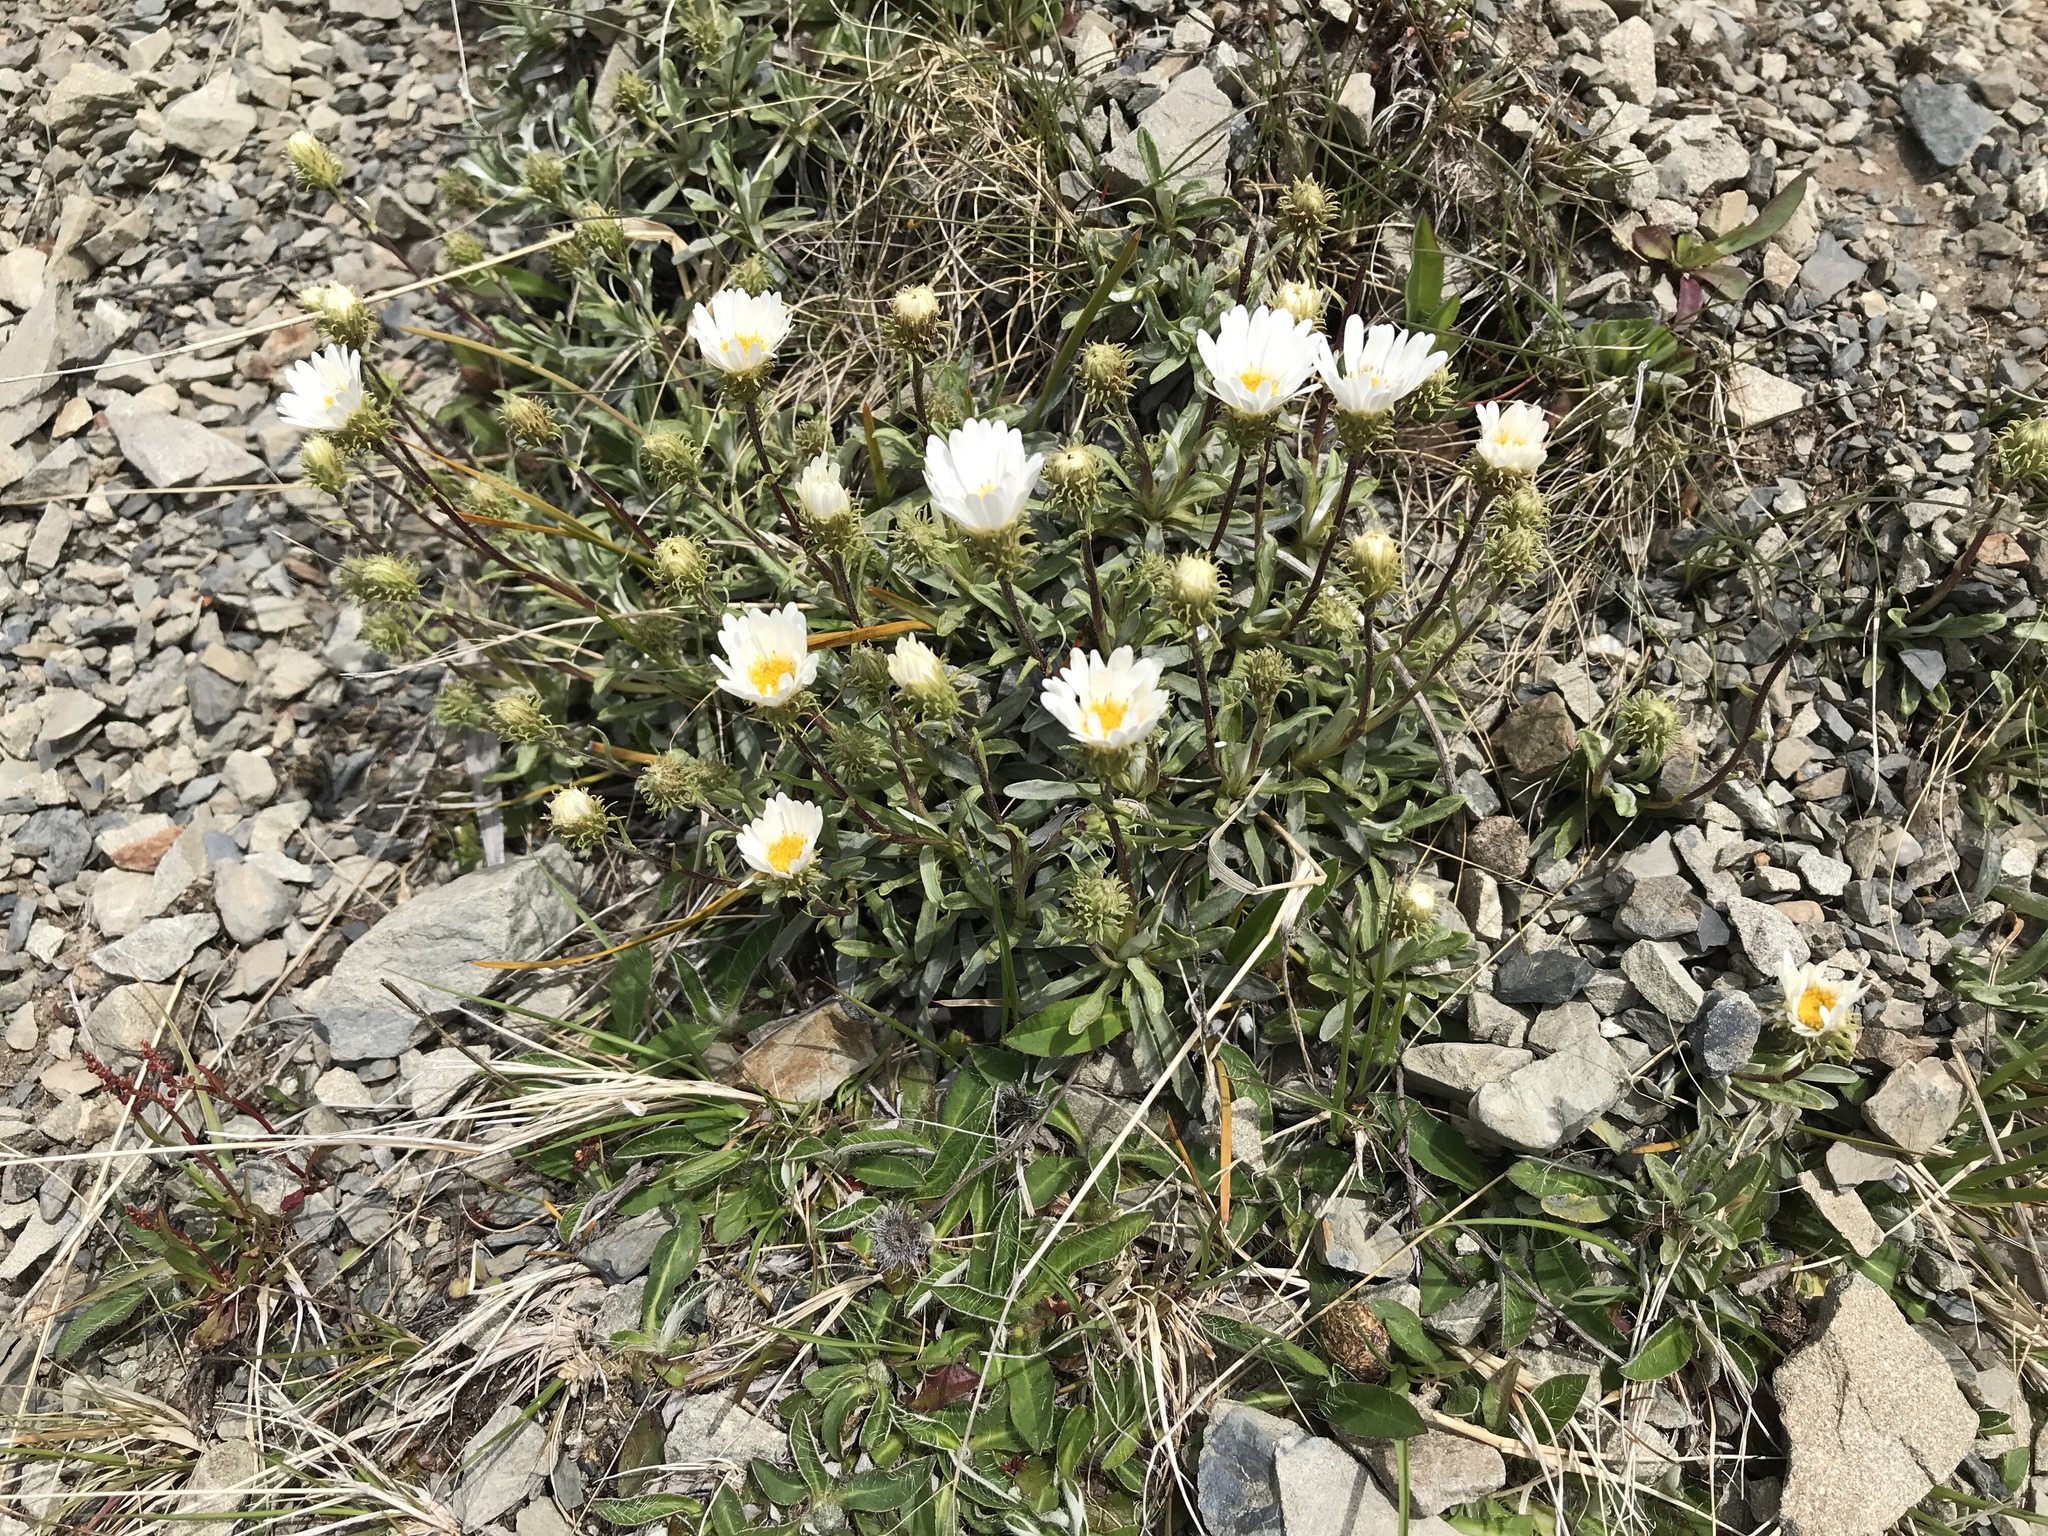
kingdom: Plantae
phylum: Tracheophyta
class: Magnoliopsida
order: Asterales
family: Asteraceae
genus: Celmisia
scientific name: Celmisia angustifolia
